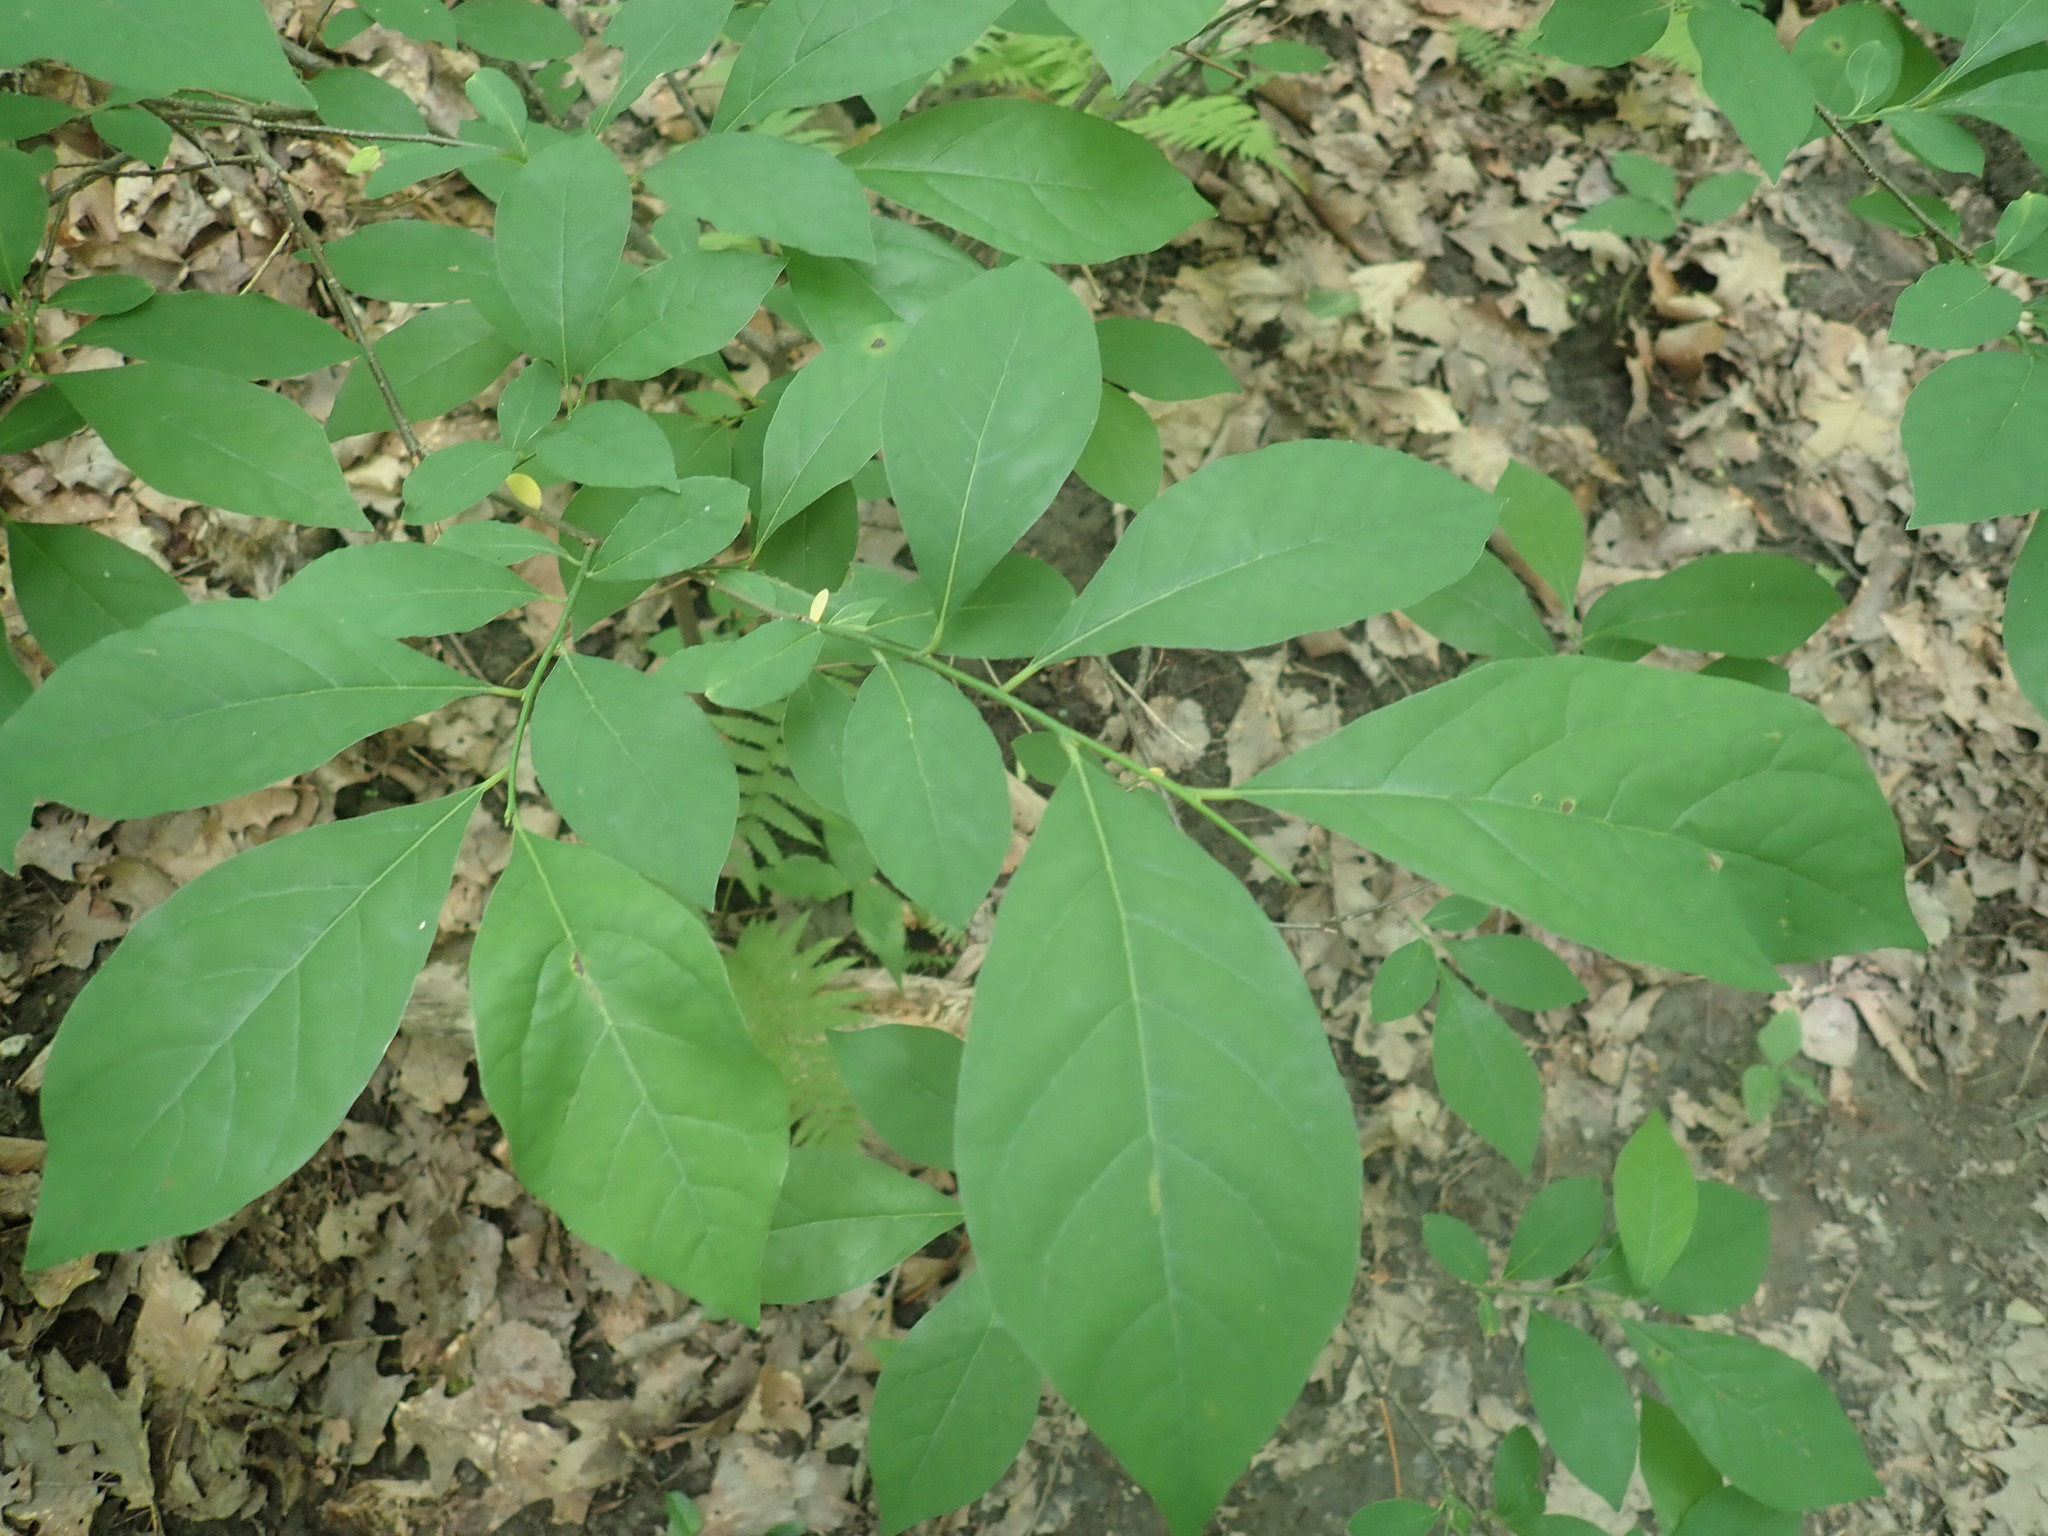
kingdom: Plantae
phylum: Tracheophyta
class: Magnoliopsida
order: Laurales
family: Lauraceae
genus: Lindera
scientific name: Lindera benzoin
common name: Spicebush
